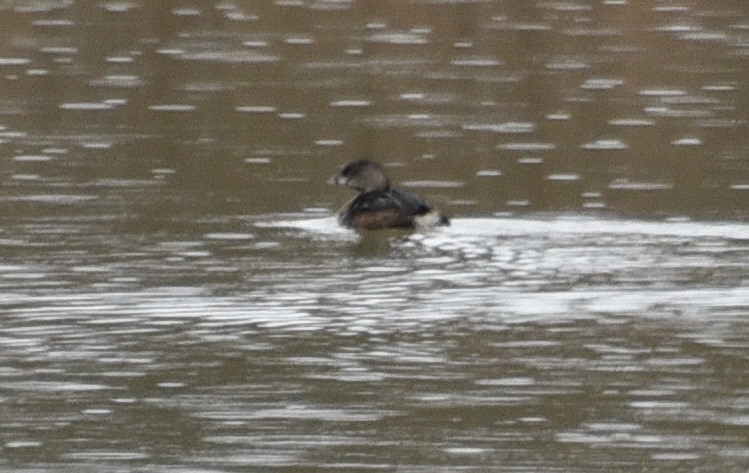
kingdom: Animalia
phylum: Chordata
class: Aves
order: Podicipediformes
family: Podicipedidae
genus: Podilymbus
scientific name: Podilymbus podiceps
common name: Pied-billed grebe
